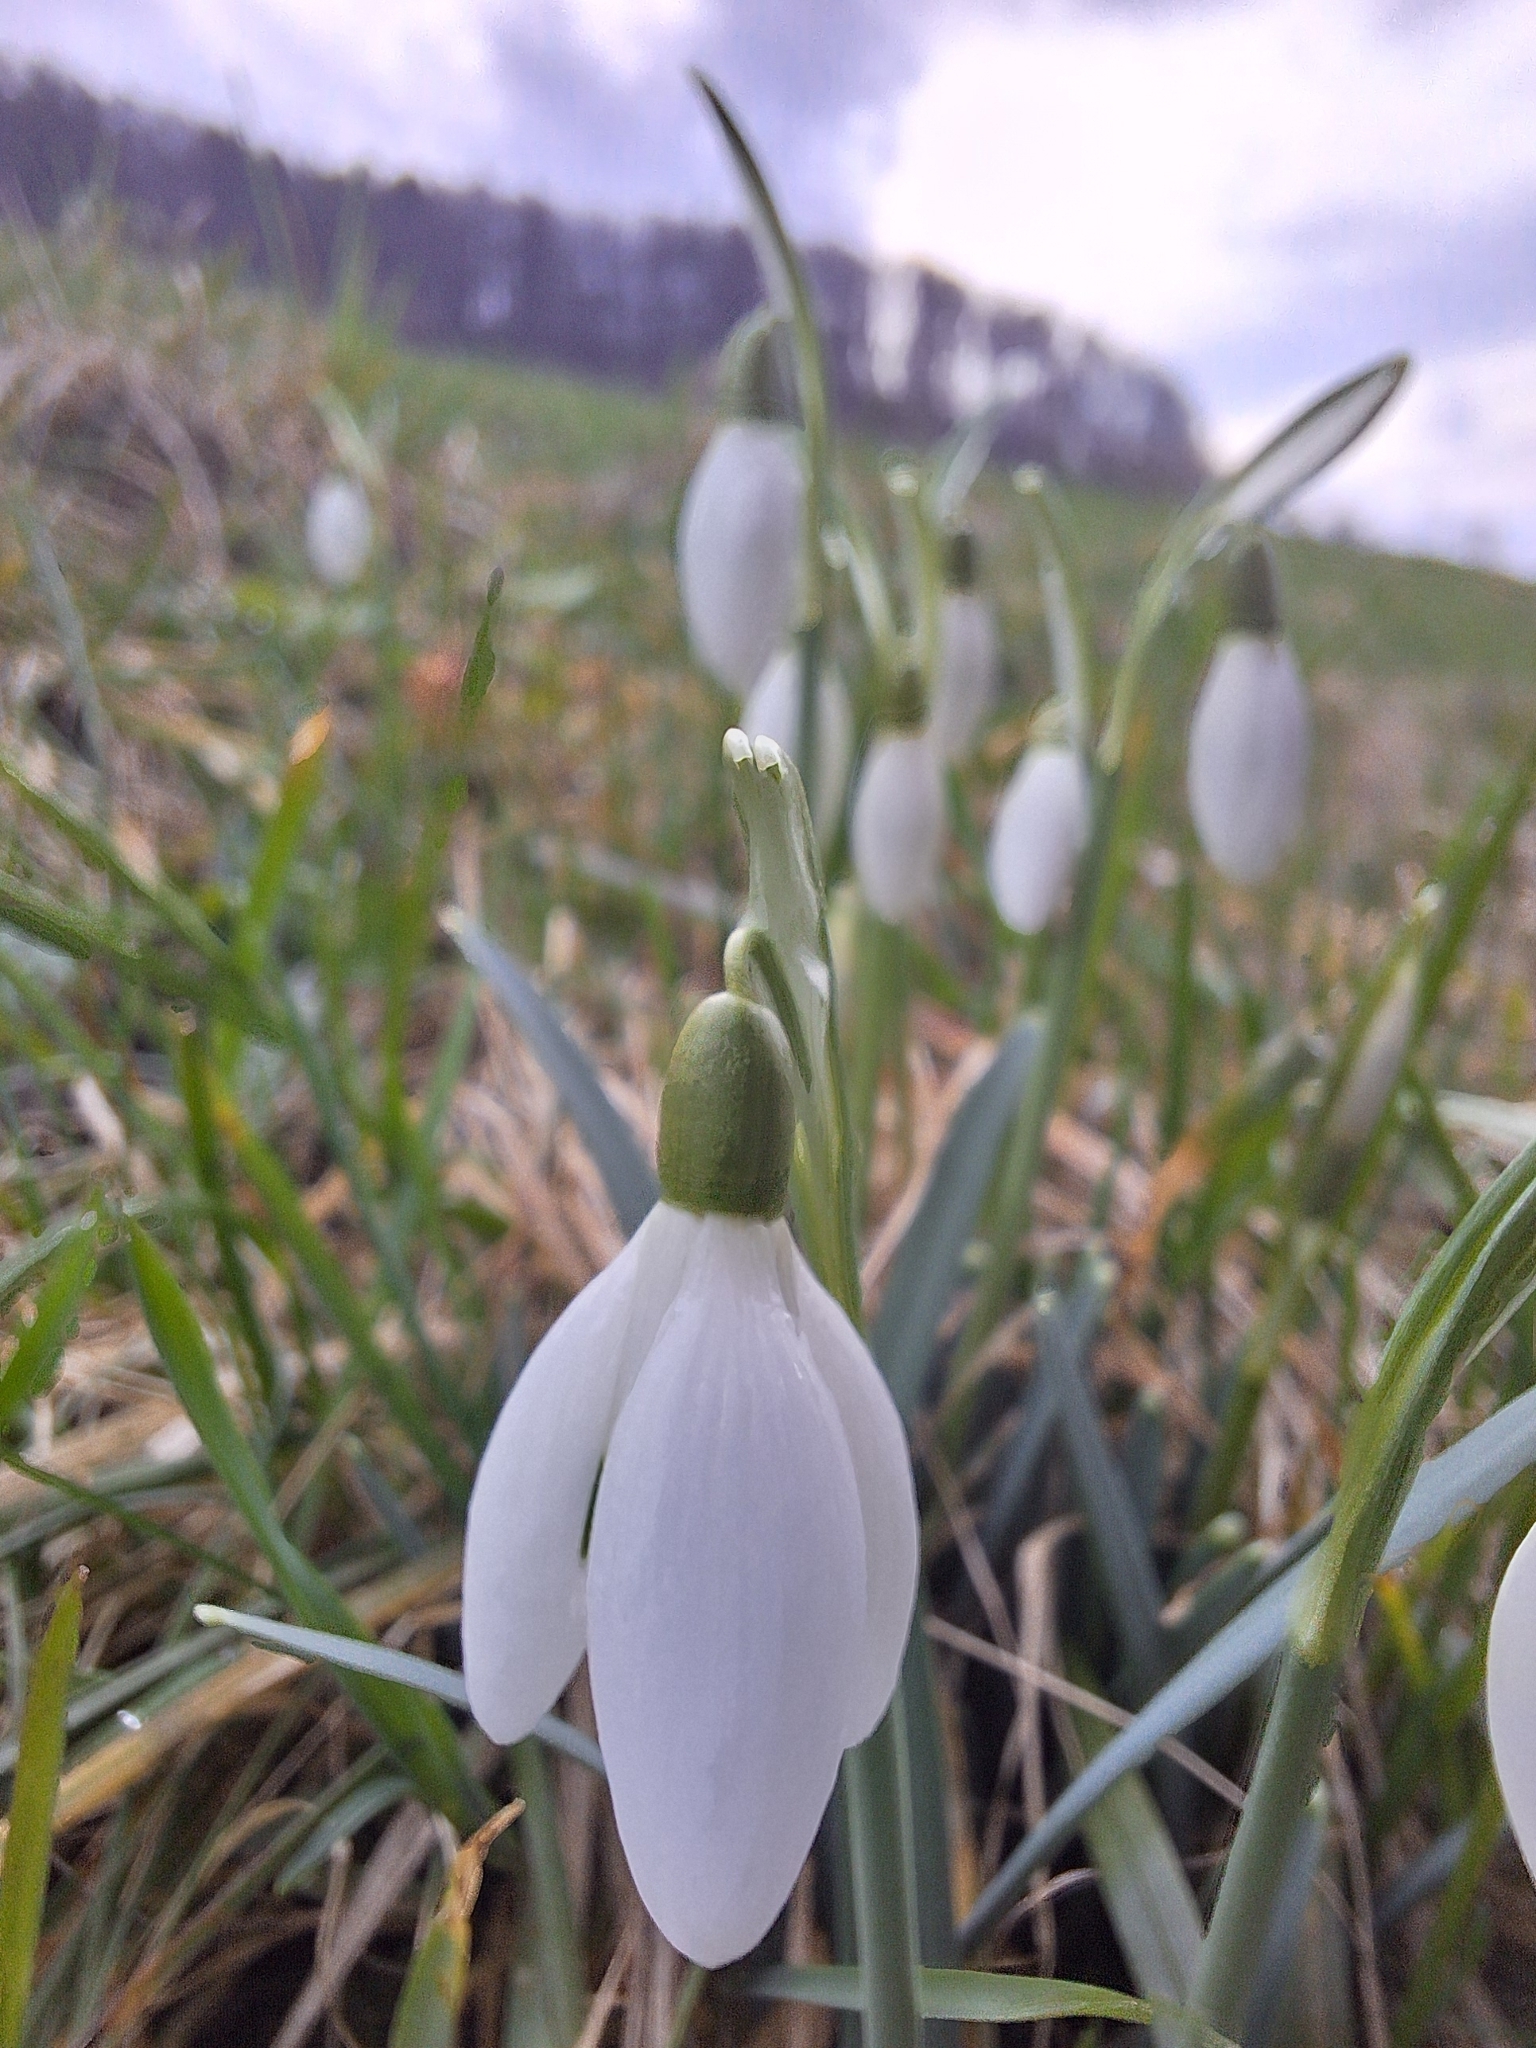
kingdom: Plantae
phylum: Tracheophyta
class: Liliopsida
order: Asparagales
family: Amaryllidaceae
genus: Galanthus
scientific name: Galanthus nivalis
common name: Snowdrop
